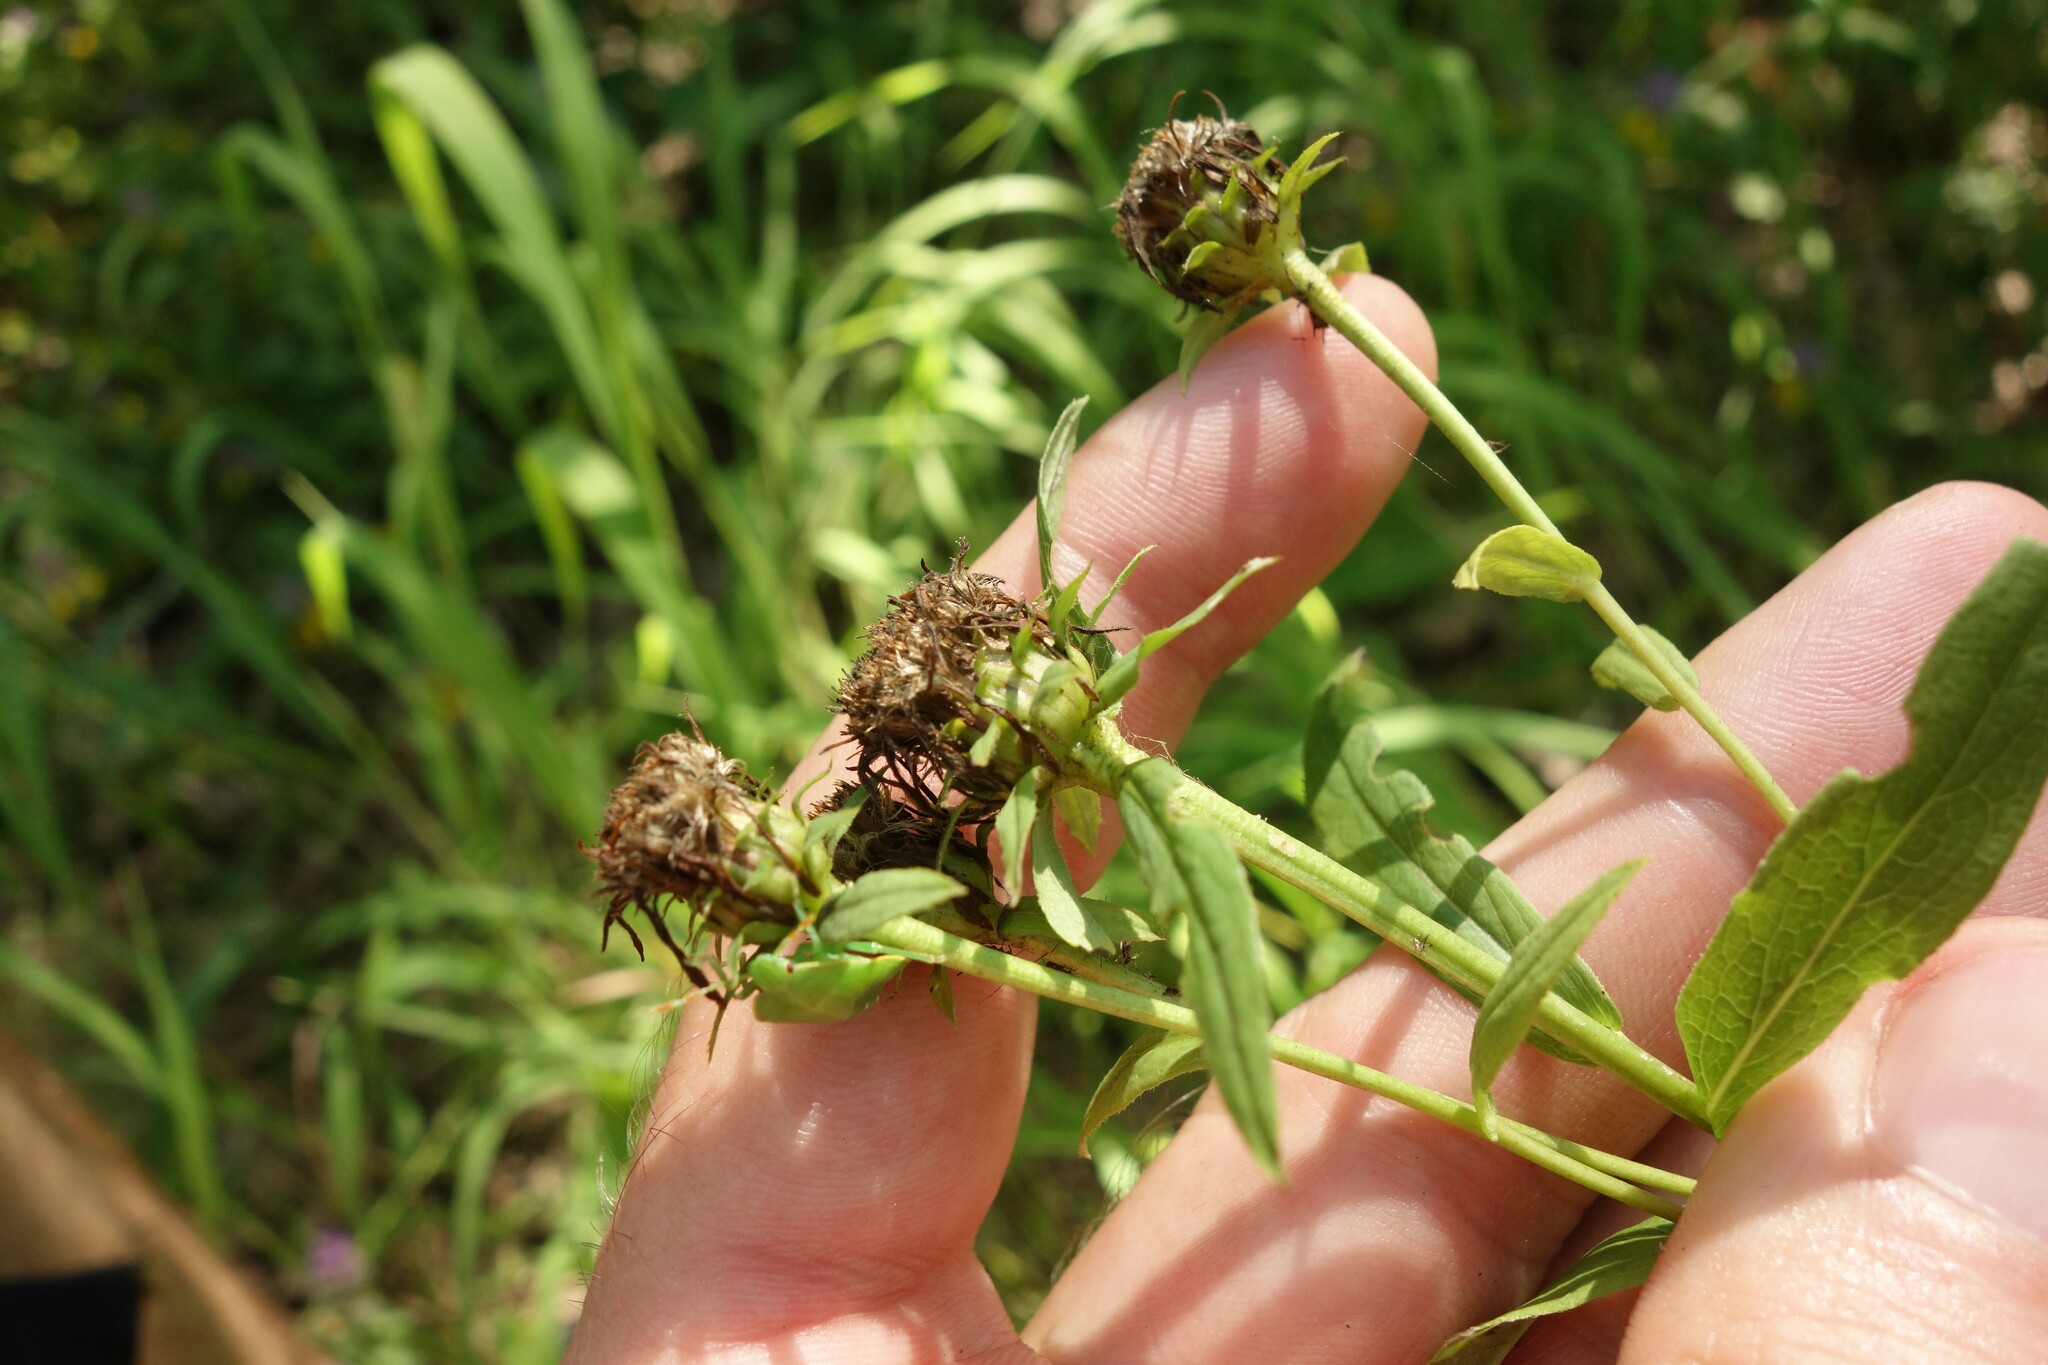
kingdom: Plantae
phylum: Tracheophyta
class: Magnoliopsida
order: Asterales
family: Asteraceae
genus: Pentanema
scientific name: Pentanema salicinum
